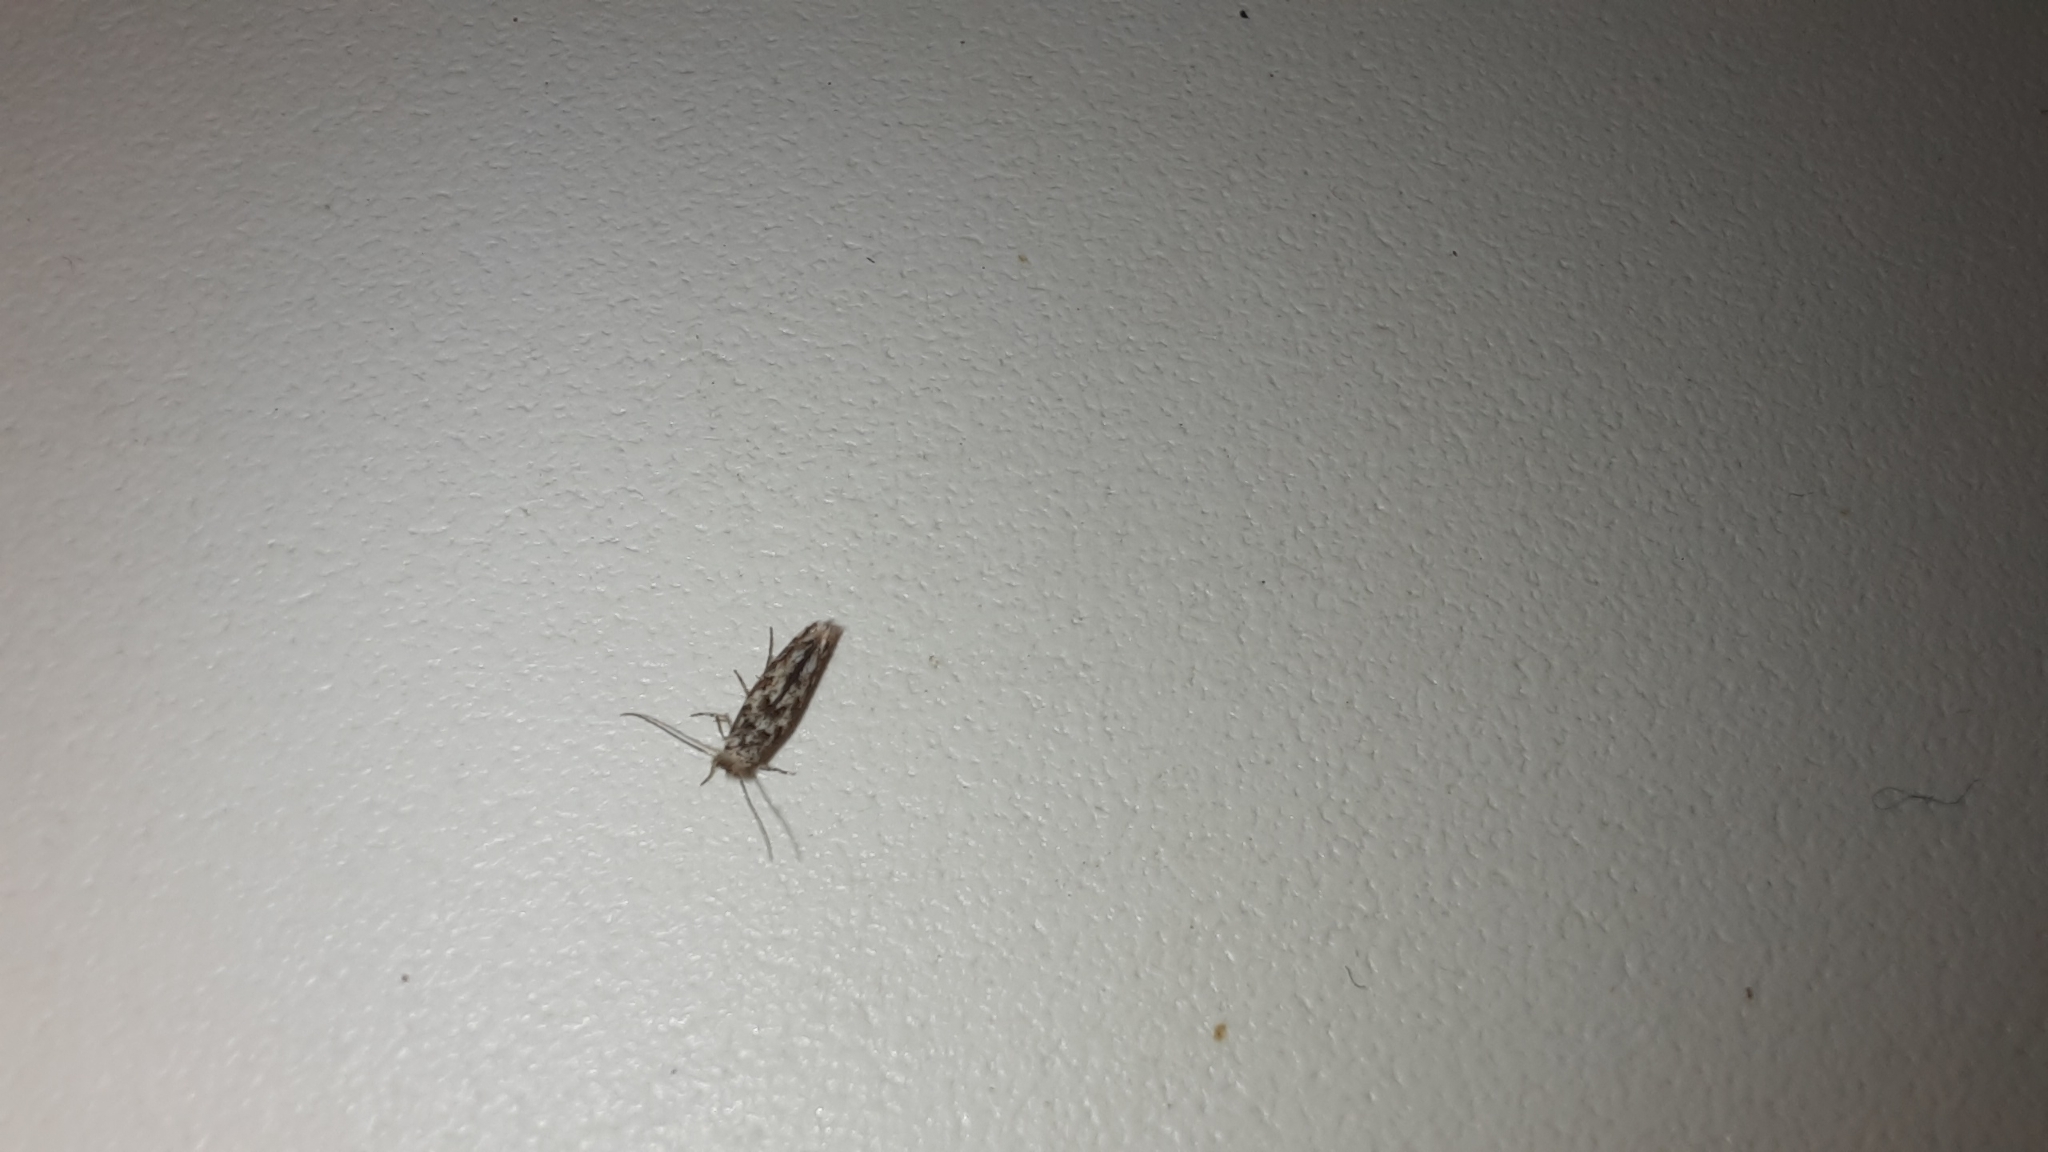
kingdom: Animalia
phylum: Arthropoda
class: Insecta
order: Lepidoptera
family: Gracillariidae
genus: Phyllonorycter
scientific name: Phyllonorycter populifoliella
